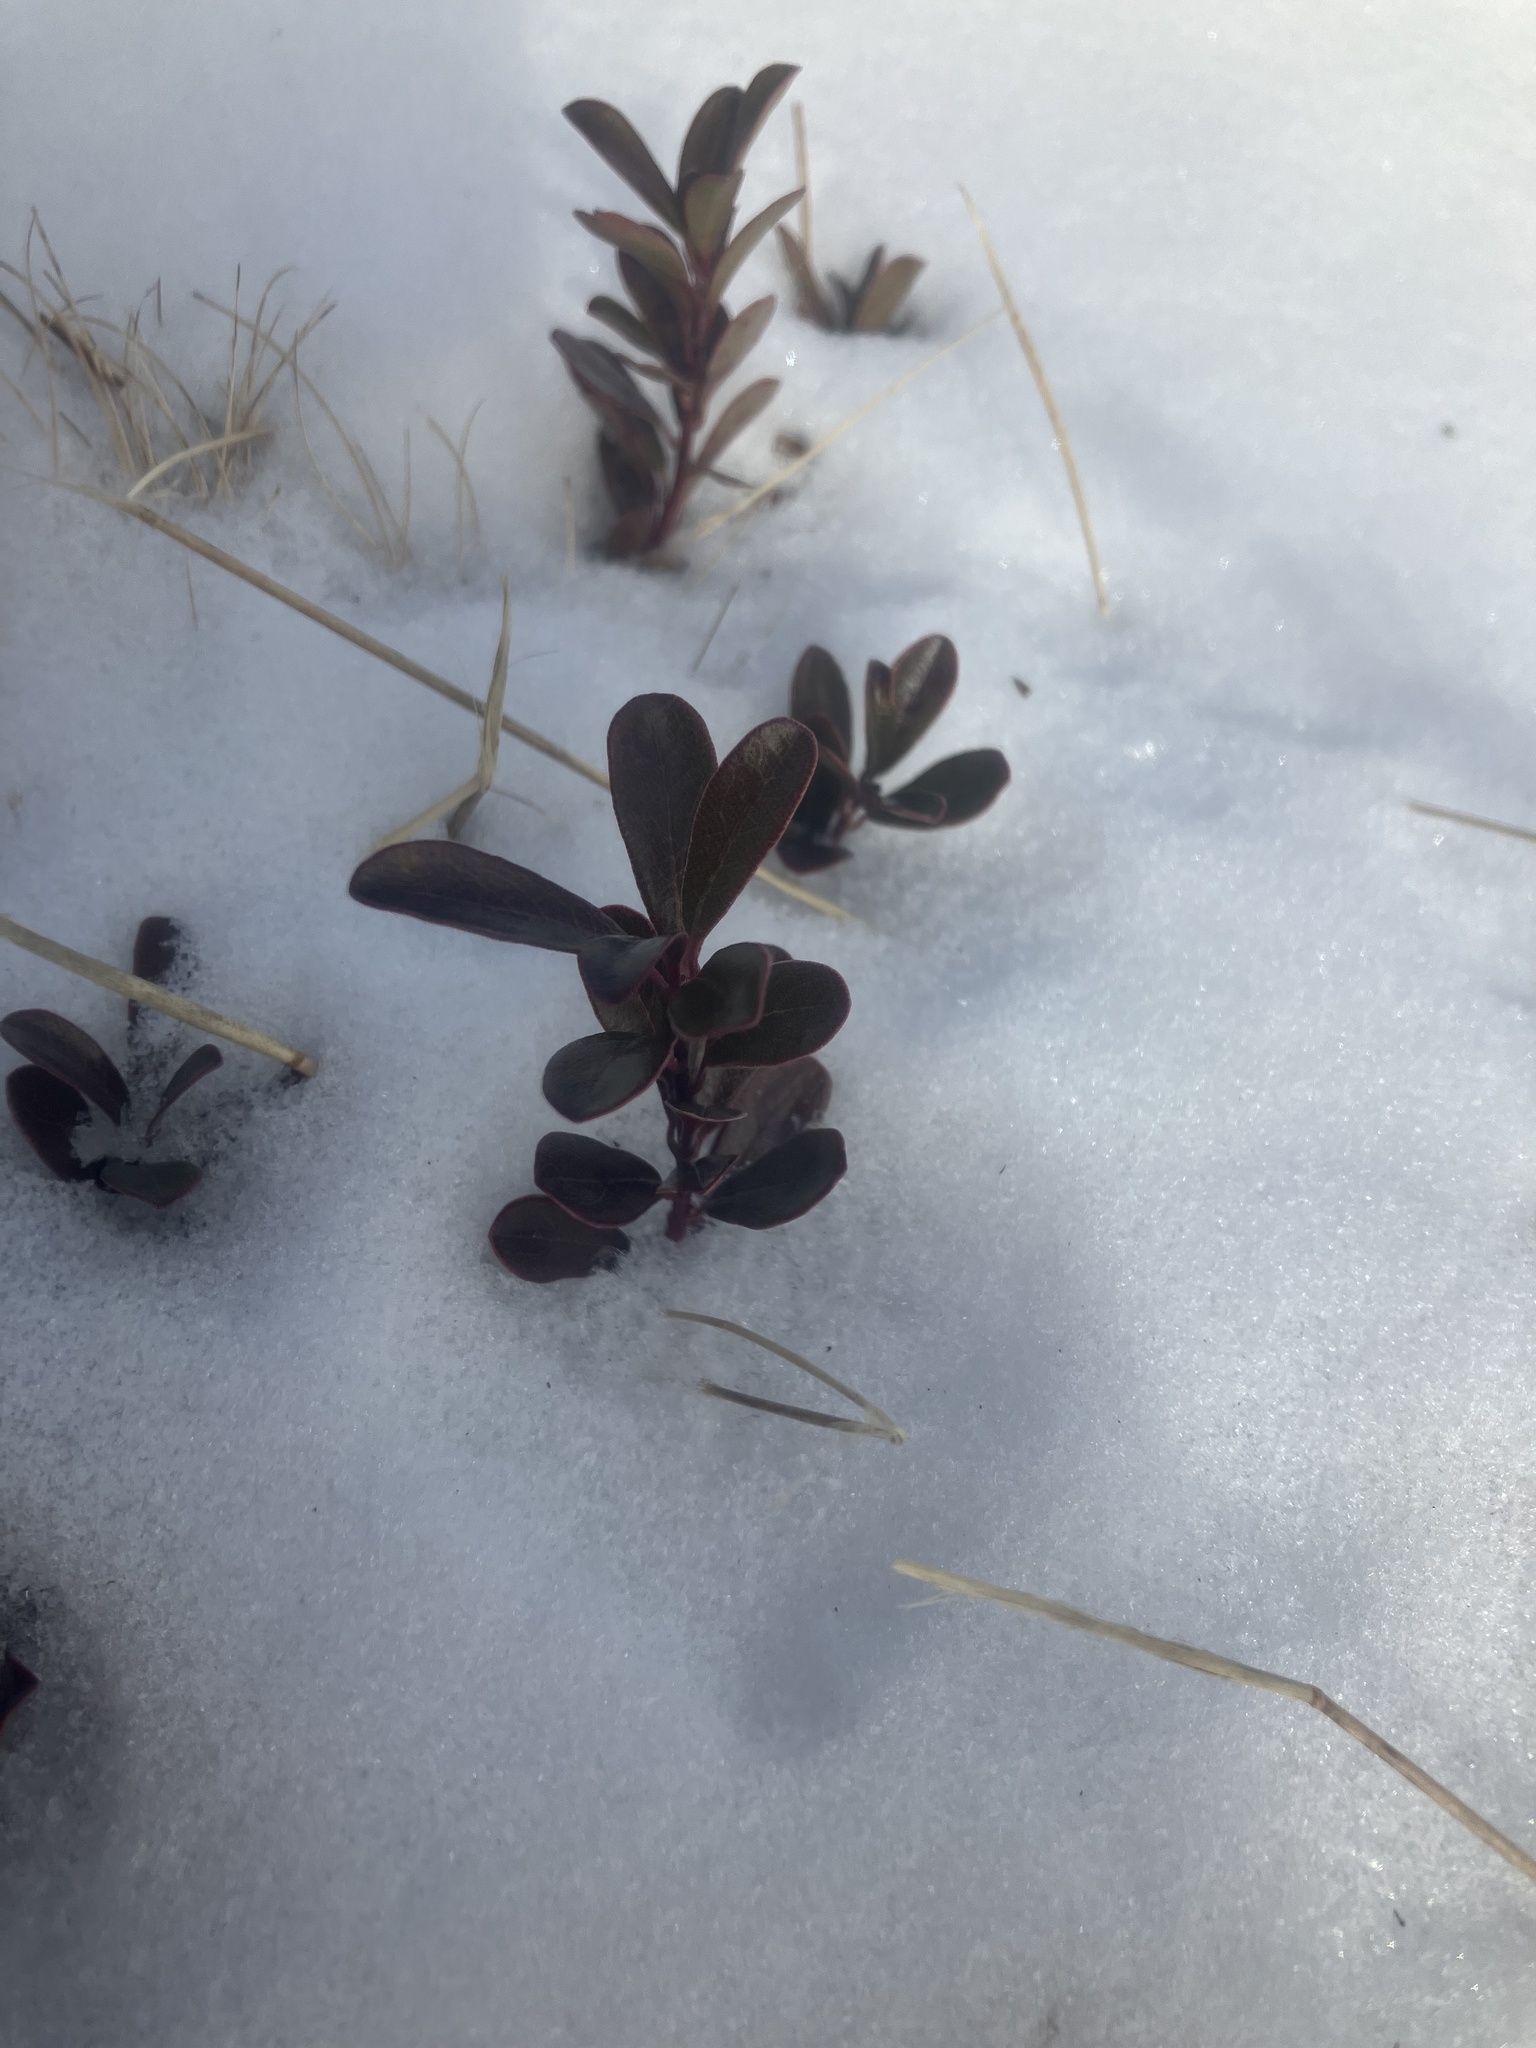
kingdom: Plantae
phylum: Tracheophyta
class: Magnoliopsida
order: Ericales
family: Ericaceae
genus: Arctostaphylos
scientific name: Arctostaphylos uva-ursi
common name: Bearberry
